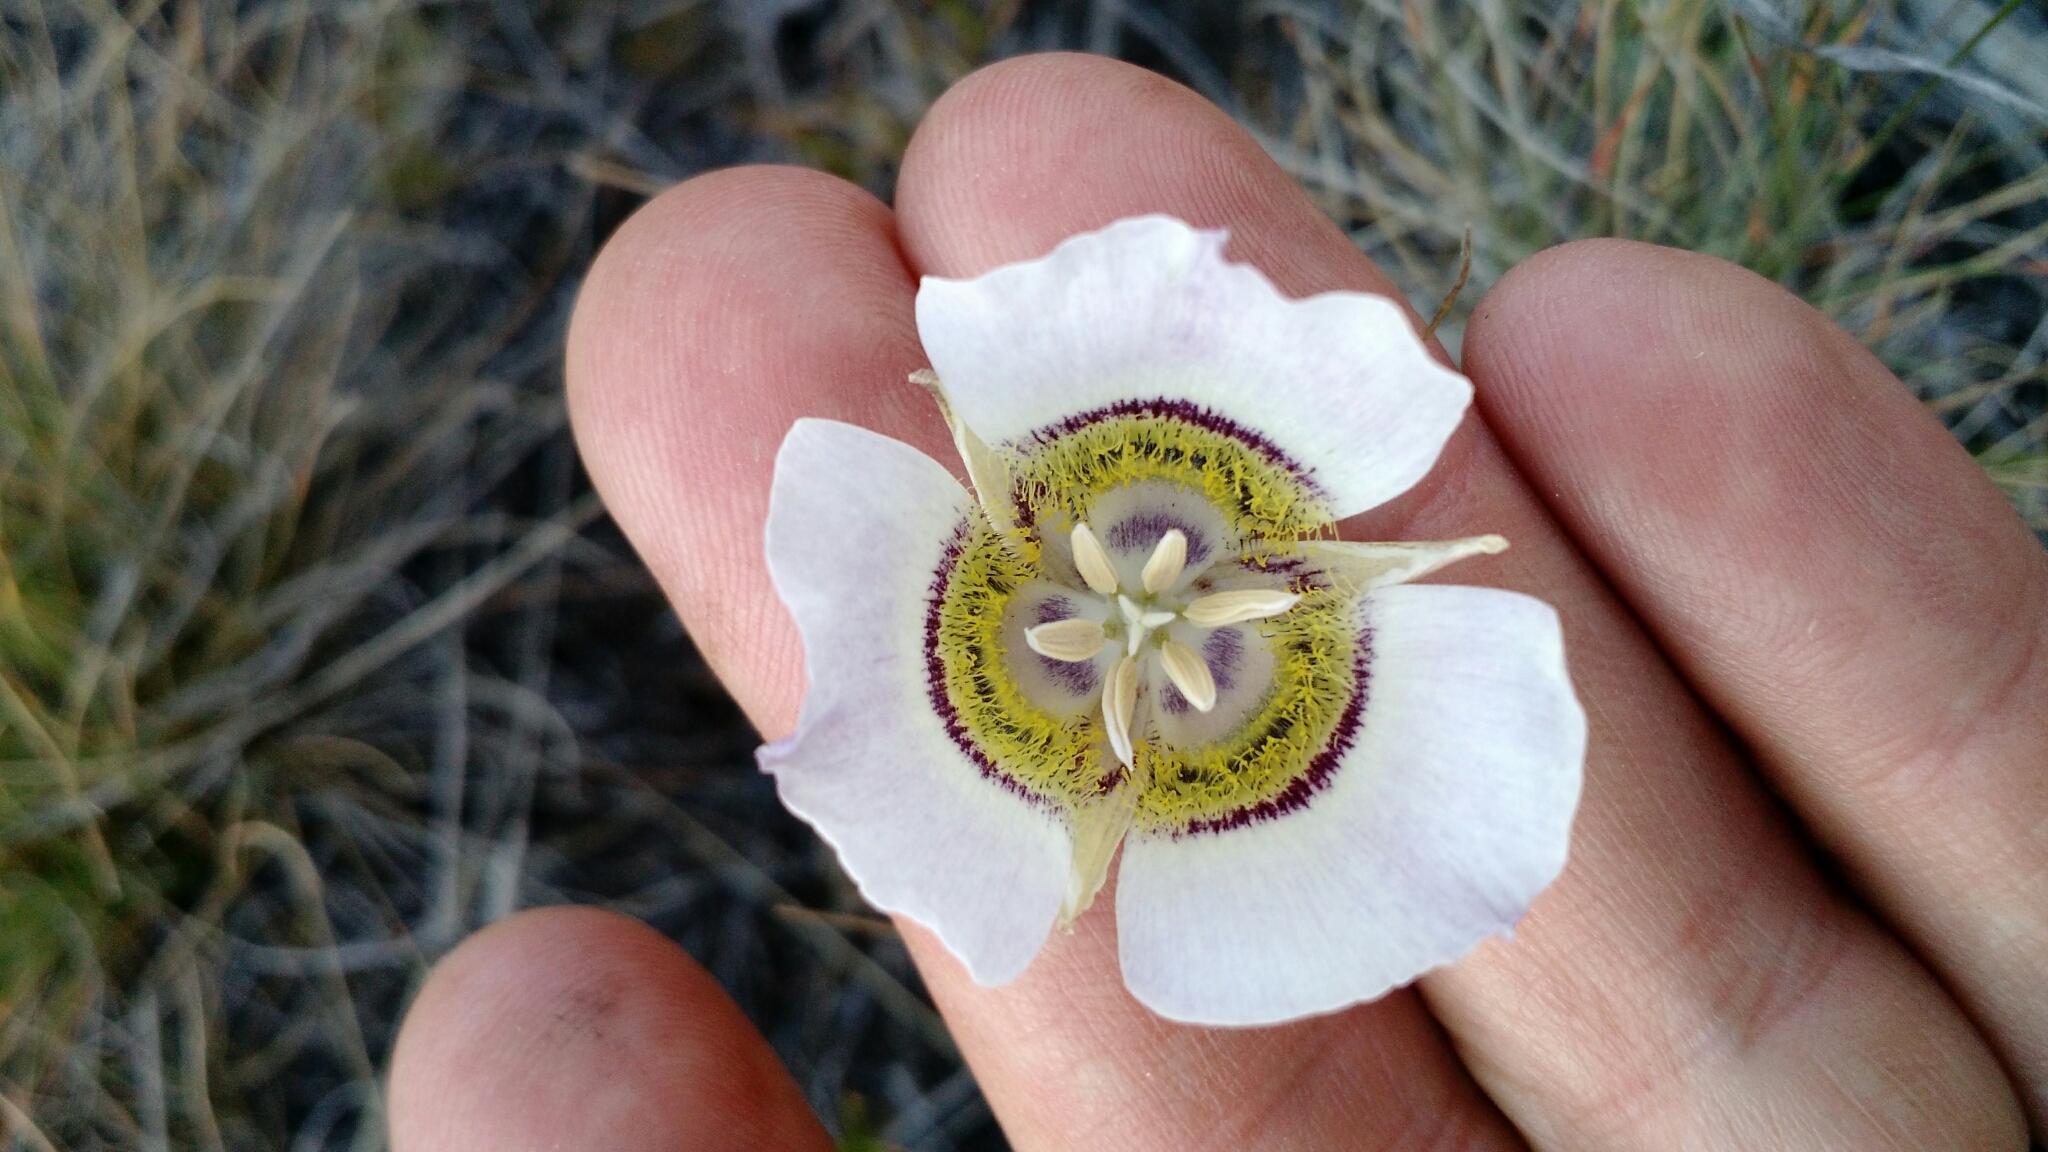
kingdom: Plantae
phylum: Tracheophyta
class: Liliopsida
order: Liliales
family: Liliaceae
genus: Calochortus
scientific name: Calochortus gunnisonii
